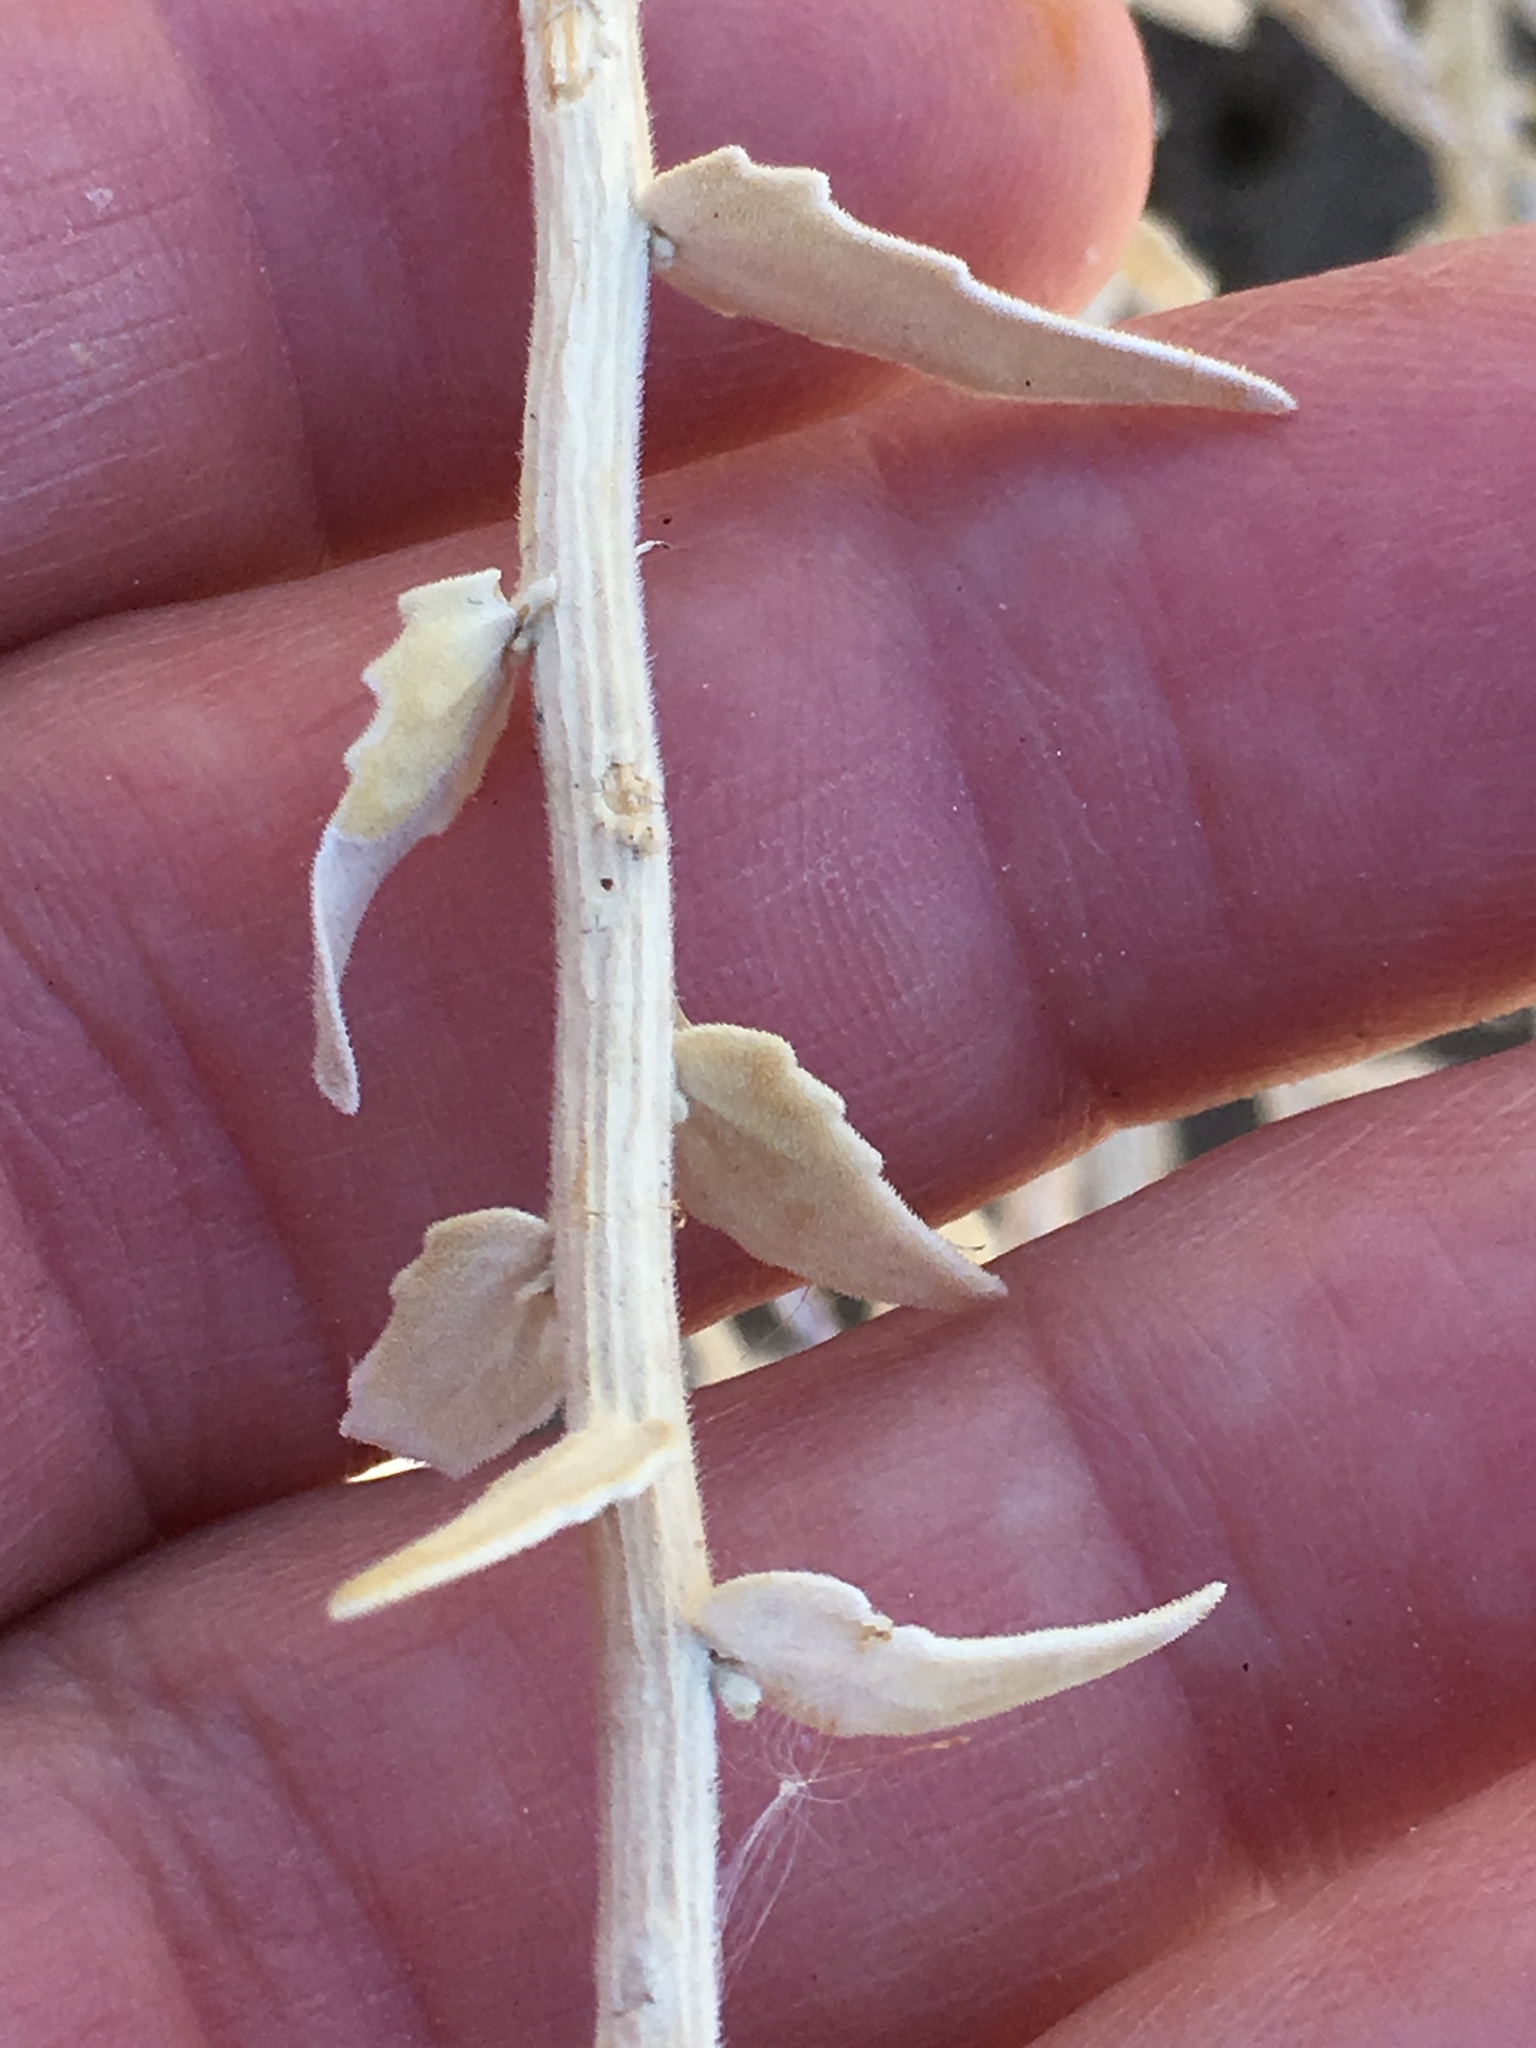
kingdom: Plantae
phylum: Tracheophyta
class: Magnoliopsida
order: Cornales
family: Loasaceae
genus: Petalonyx
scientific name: Petalonyx thurberi
